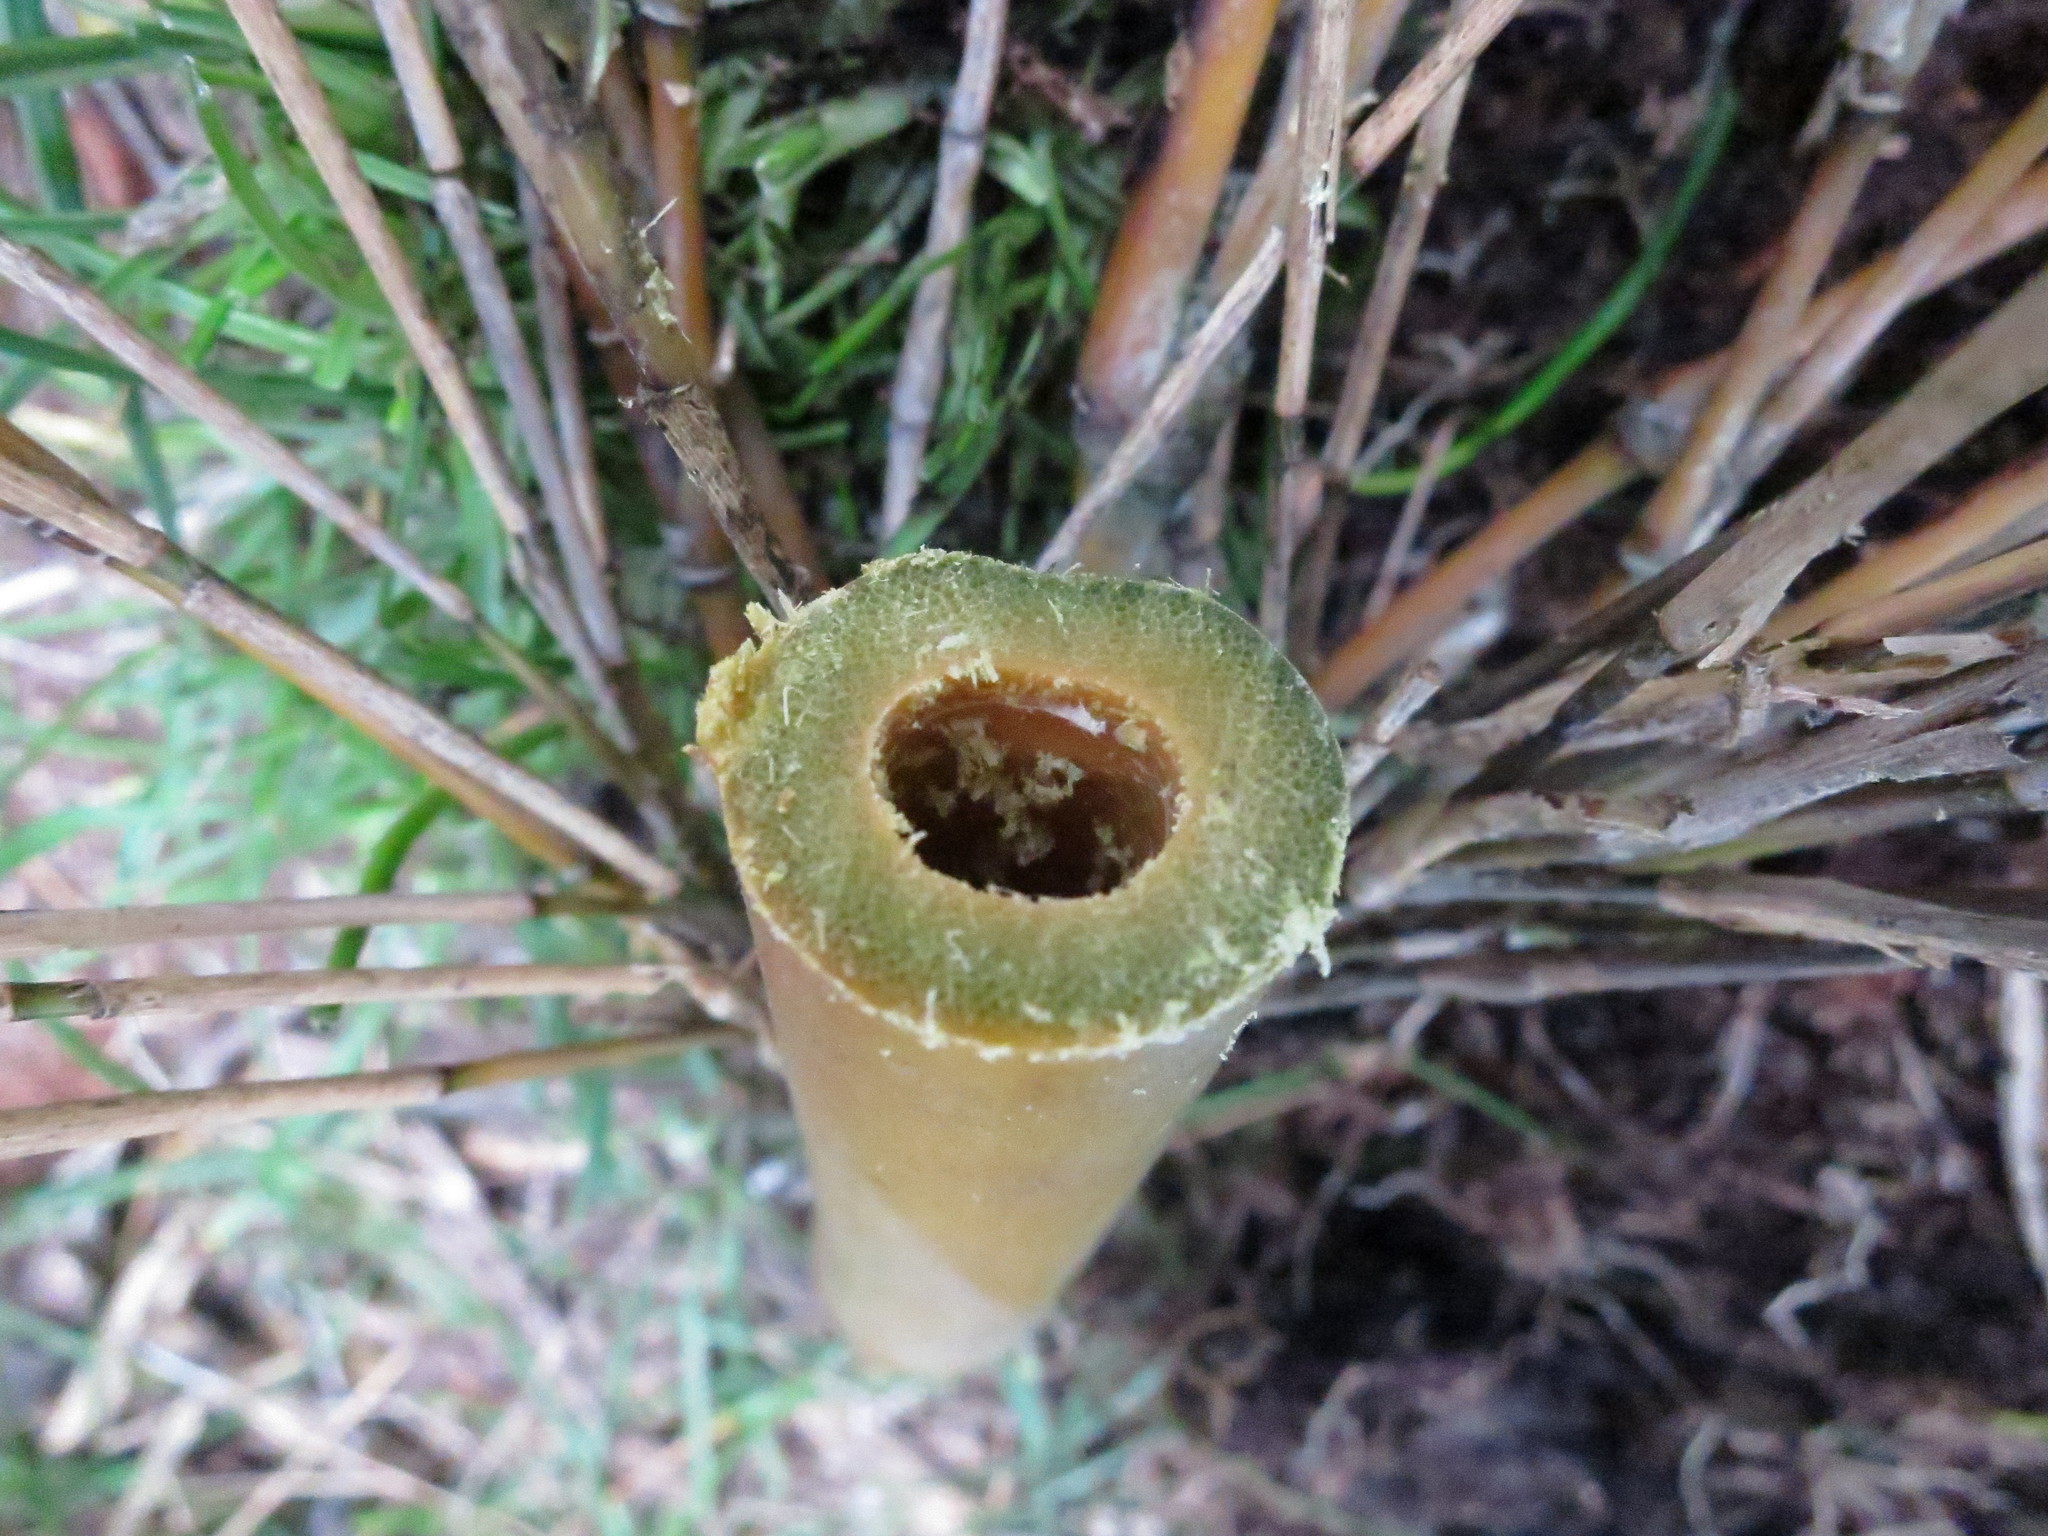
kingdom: Plantae
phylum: Tracheophyta
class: Liliopsida
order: Poales
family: Poaceae
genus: Oldeania
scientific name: Oldeania humbertii
